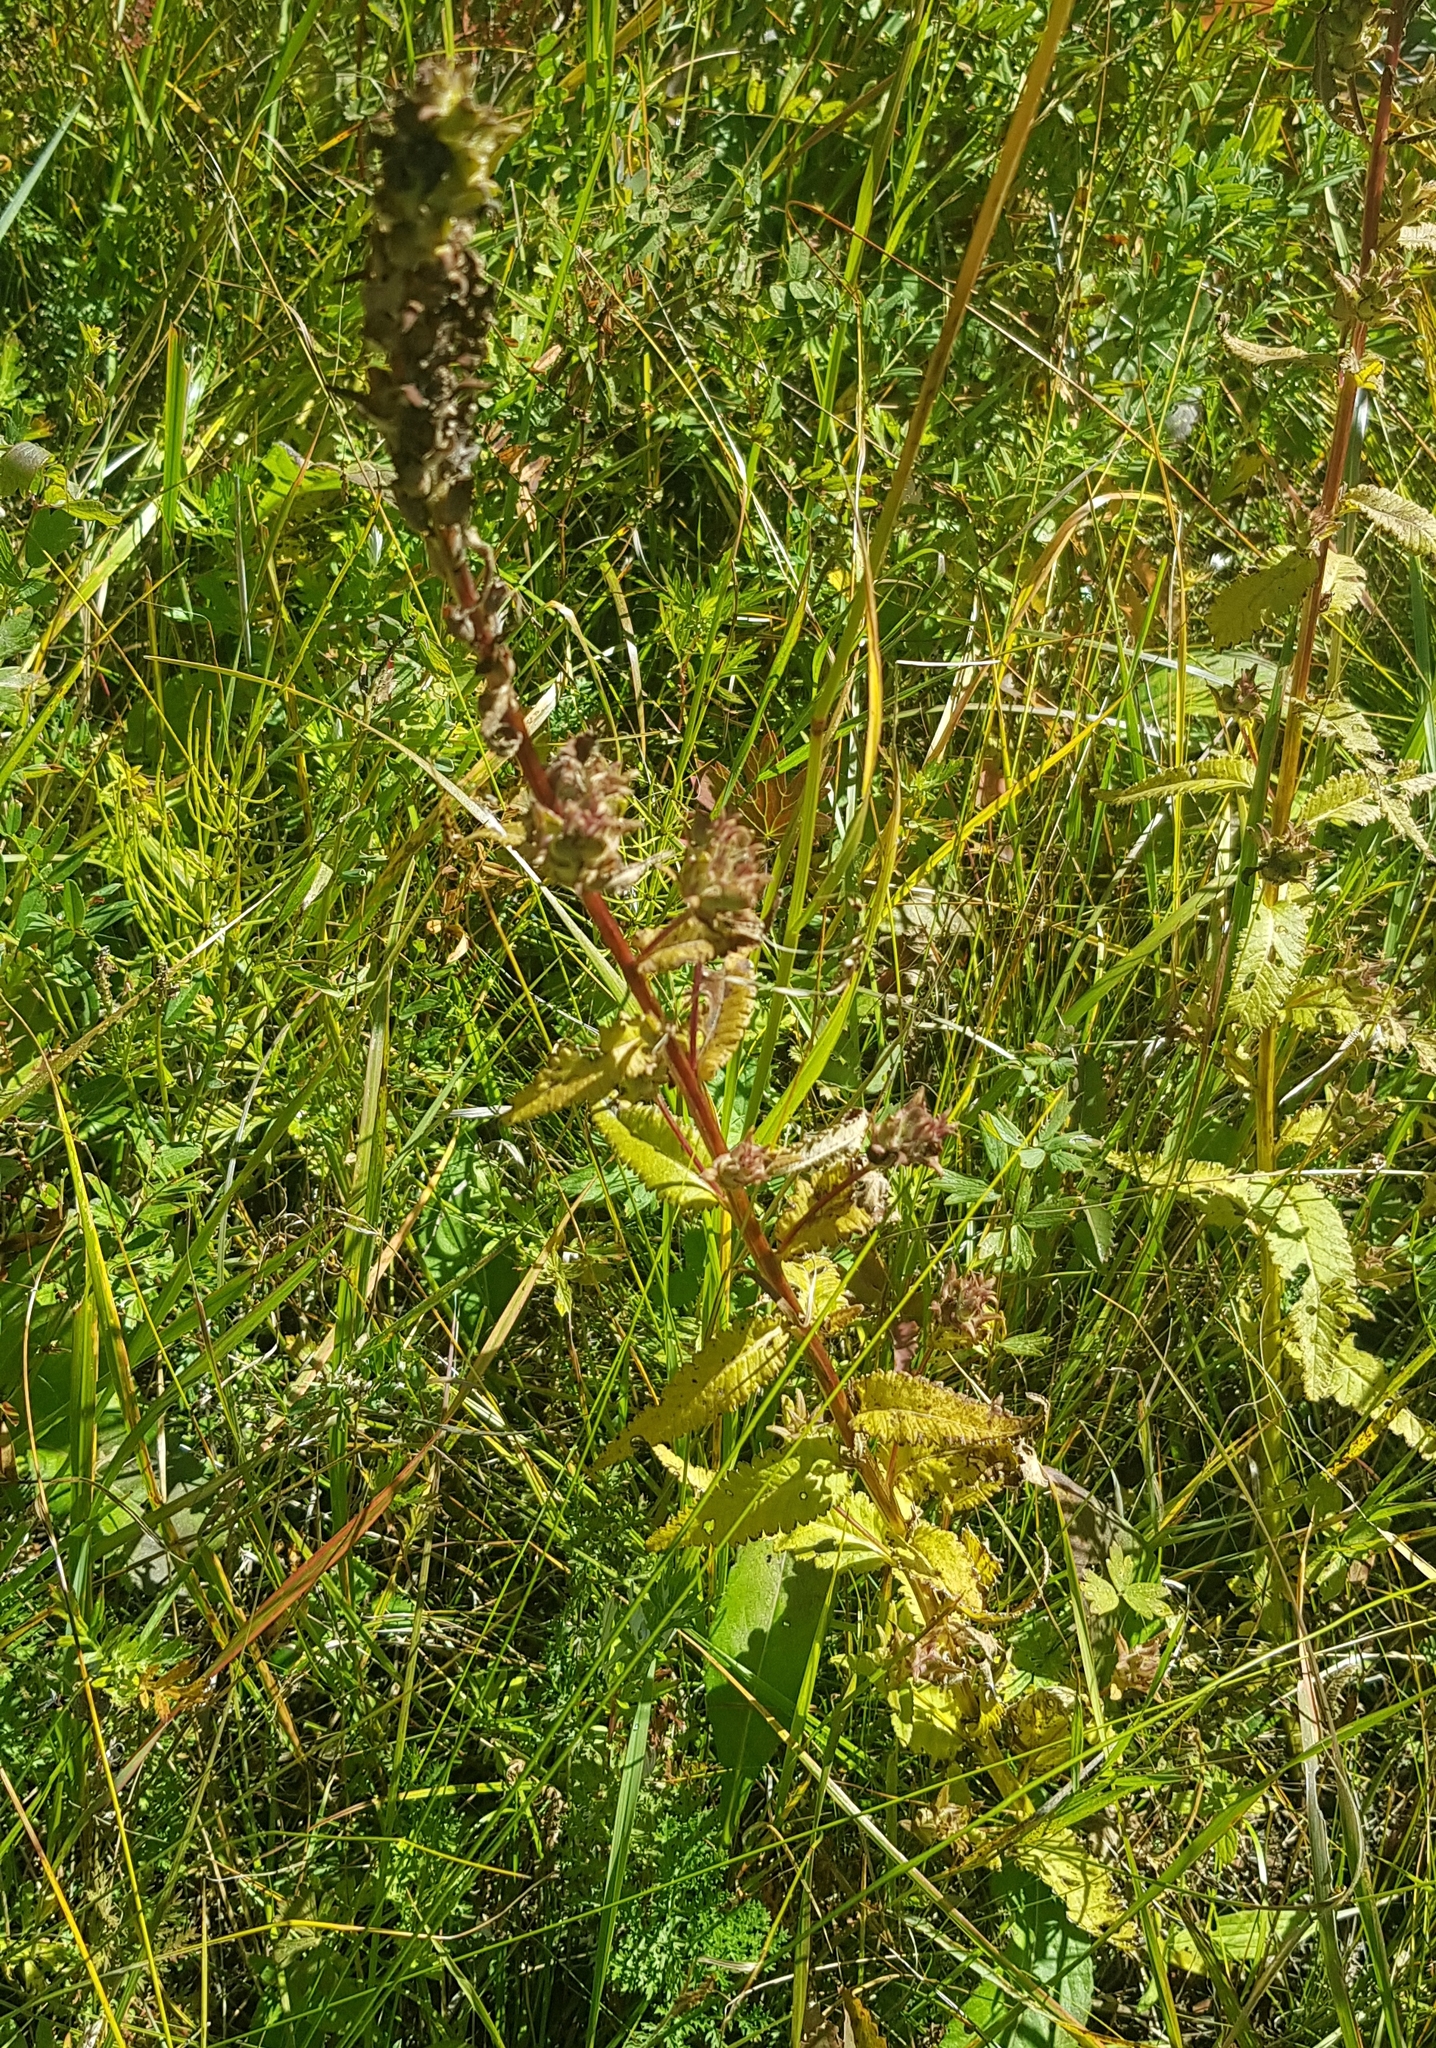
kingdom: Plantae
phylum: Tracheophyta
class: Magnoliopsida
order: Lamiales
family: Orobanchaceae
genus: Pedicularis
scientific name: Pedicularis resupinata
